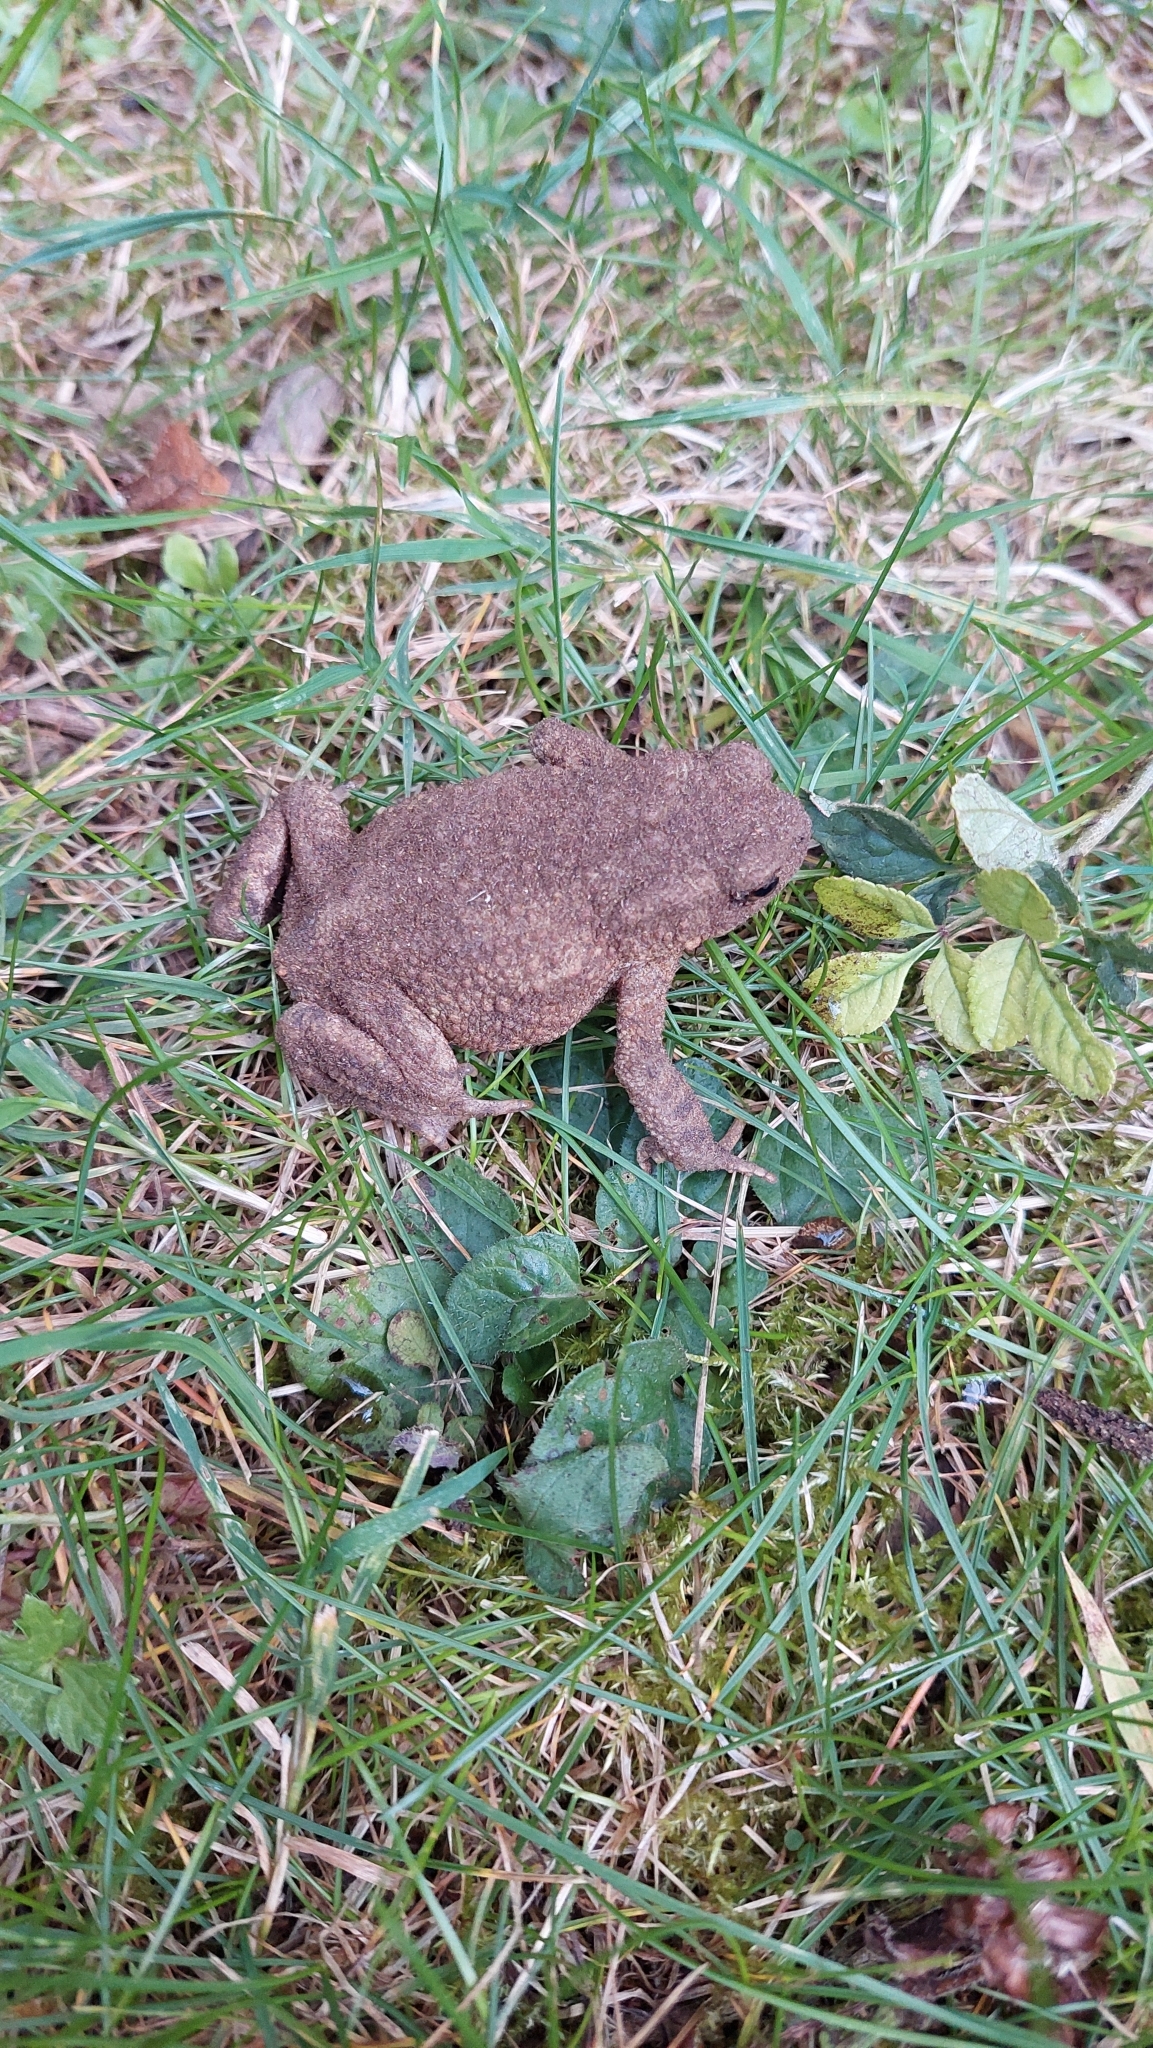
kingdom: Animalia
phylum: Chordata
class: Amphibia
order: Anura
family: Bufonidae
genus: Bufo
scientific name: Bufo bufo
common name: Common toad
